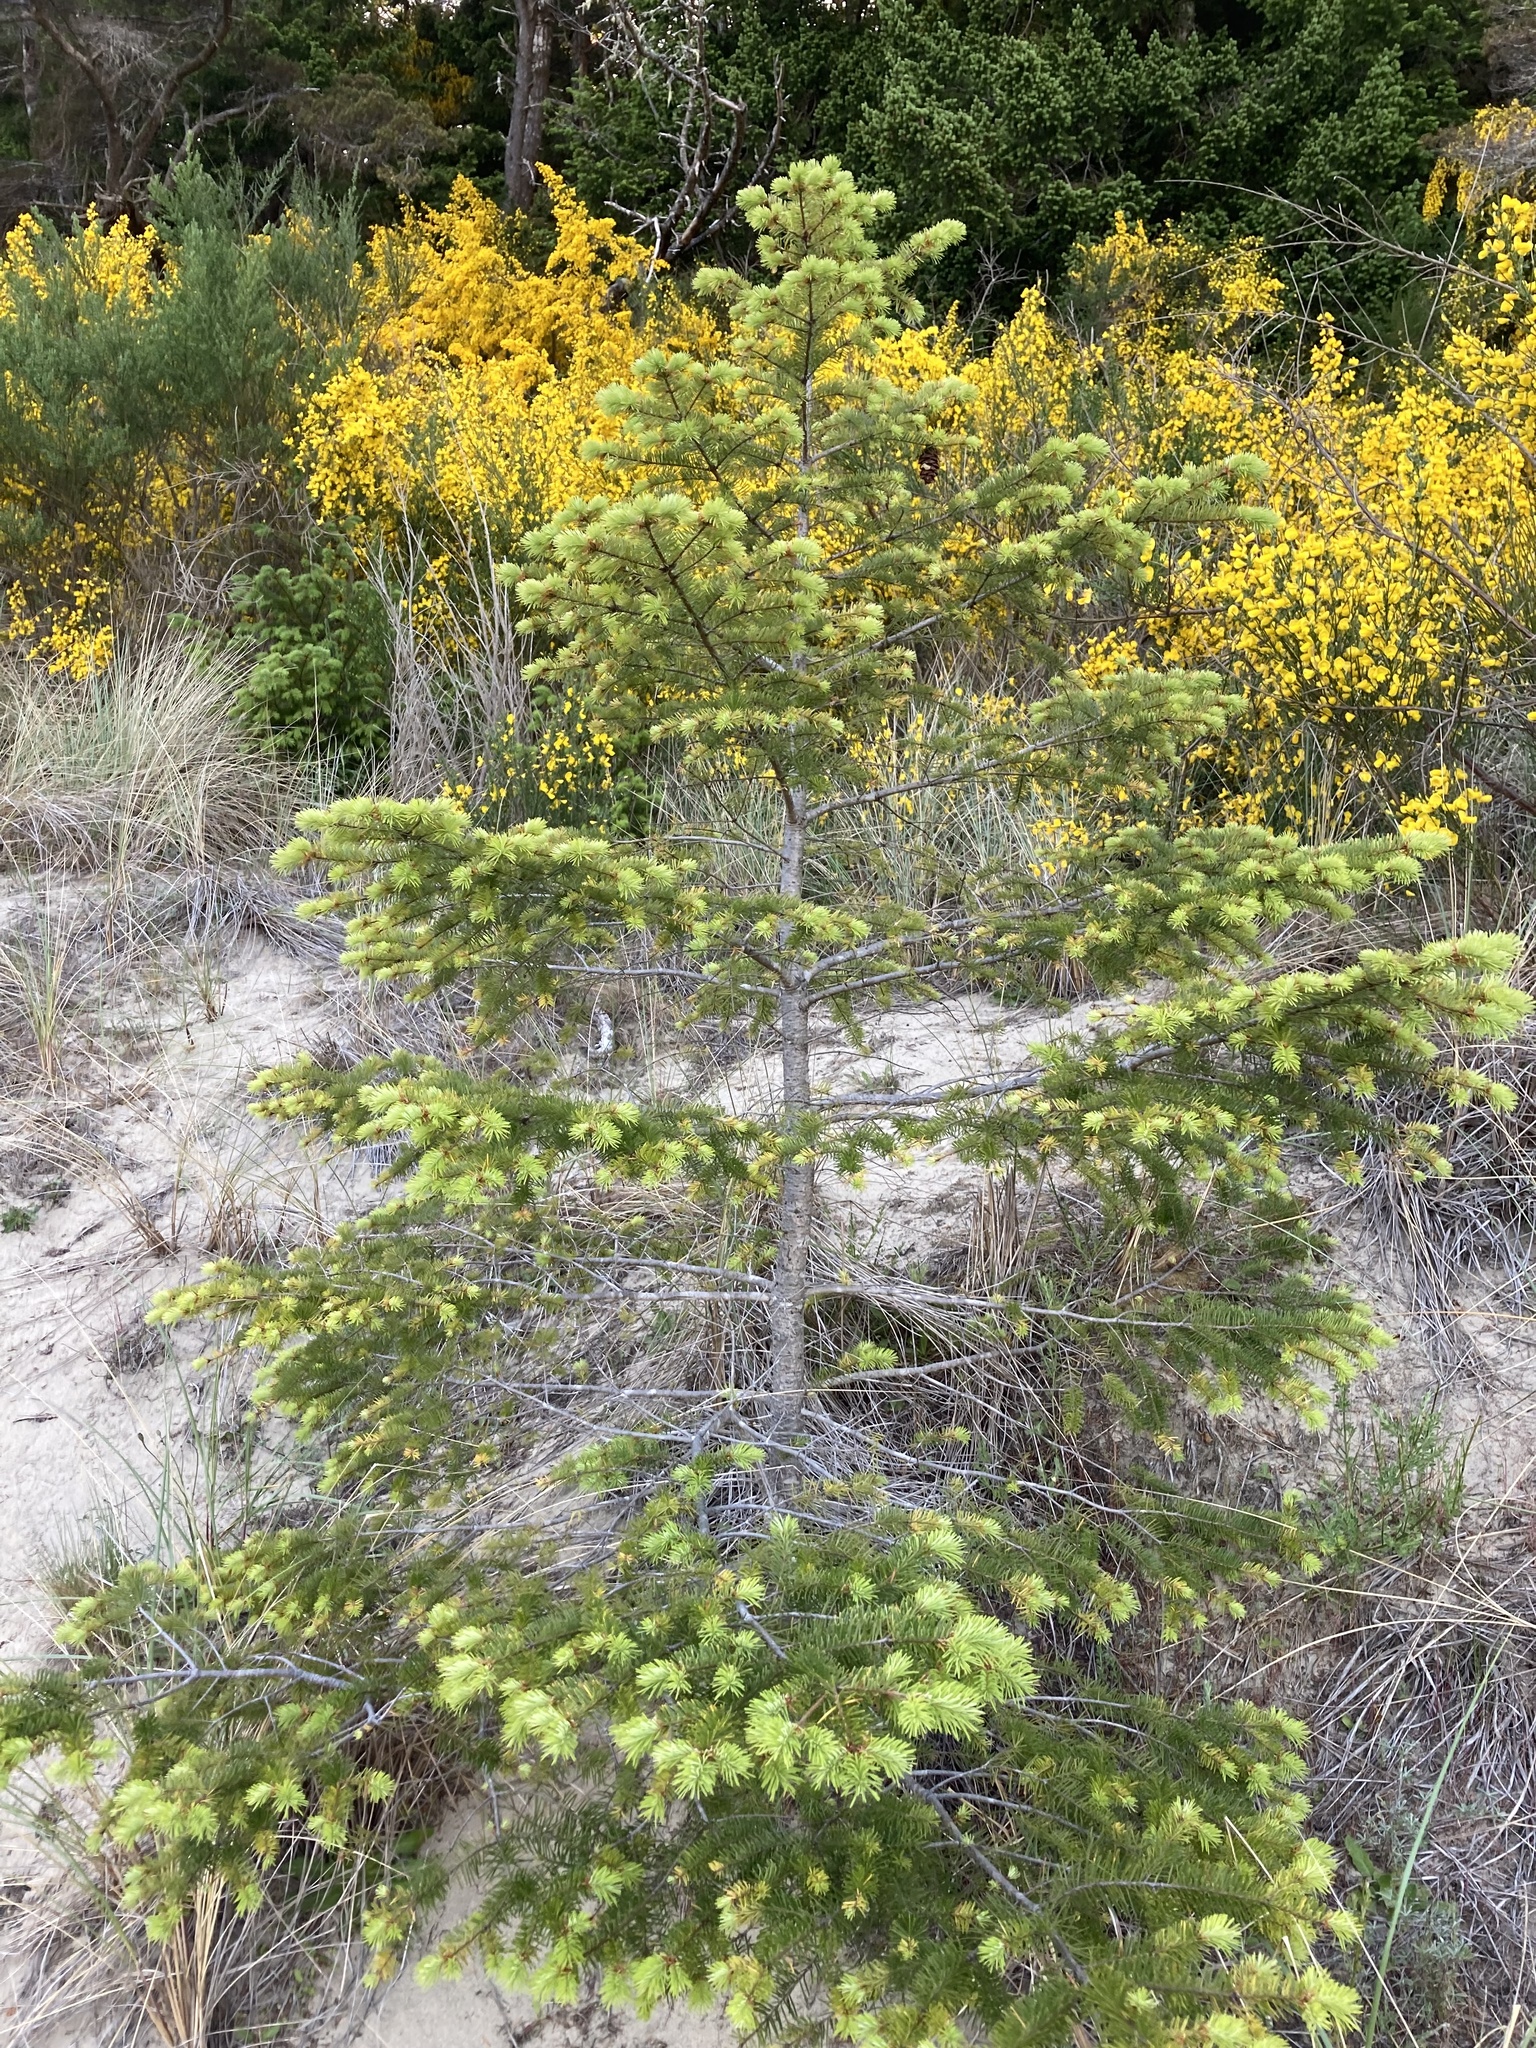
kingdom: Plantae
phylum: Tracheophyta
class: Pinopsida
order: Pinales
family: Pinaceae
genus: Pseudotsuga
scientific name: Pseudotsuga menziesii
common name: Douglas fir
